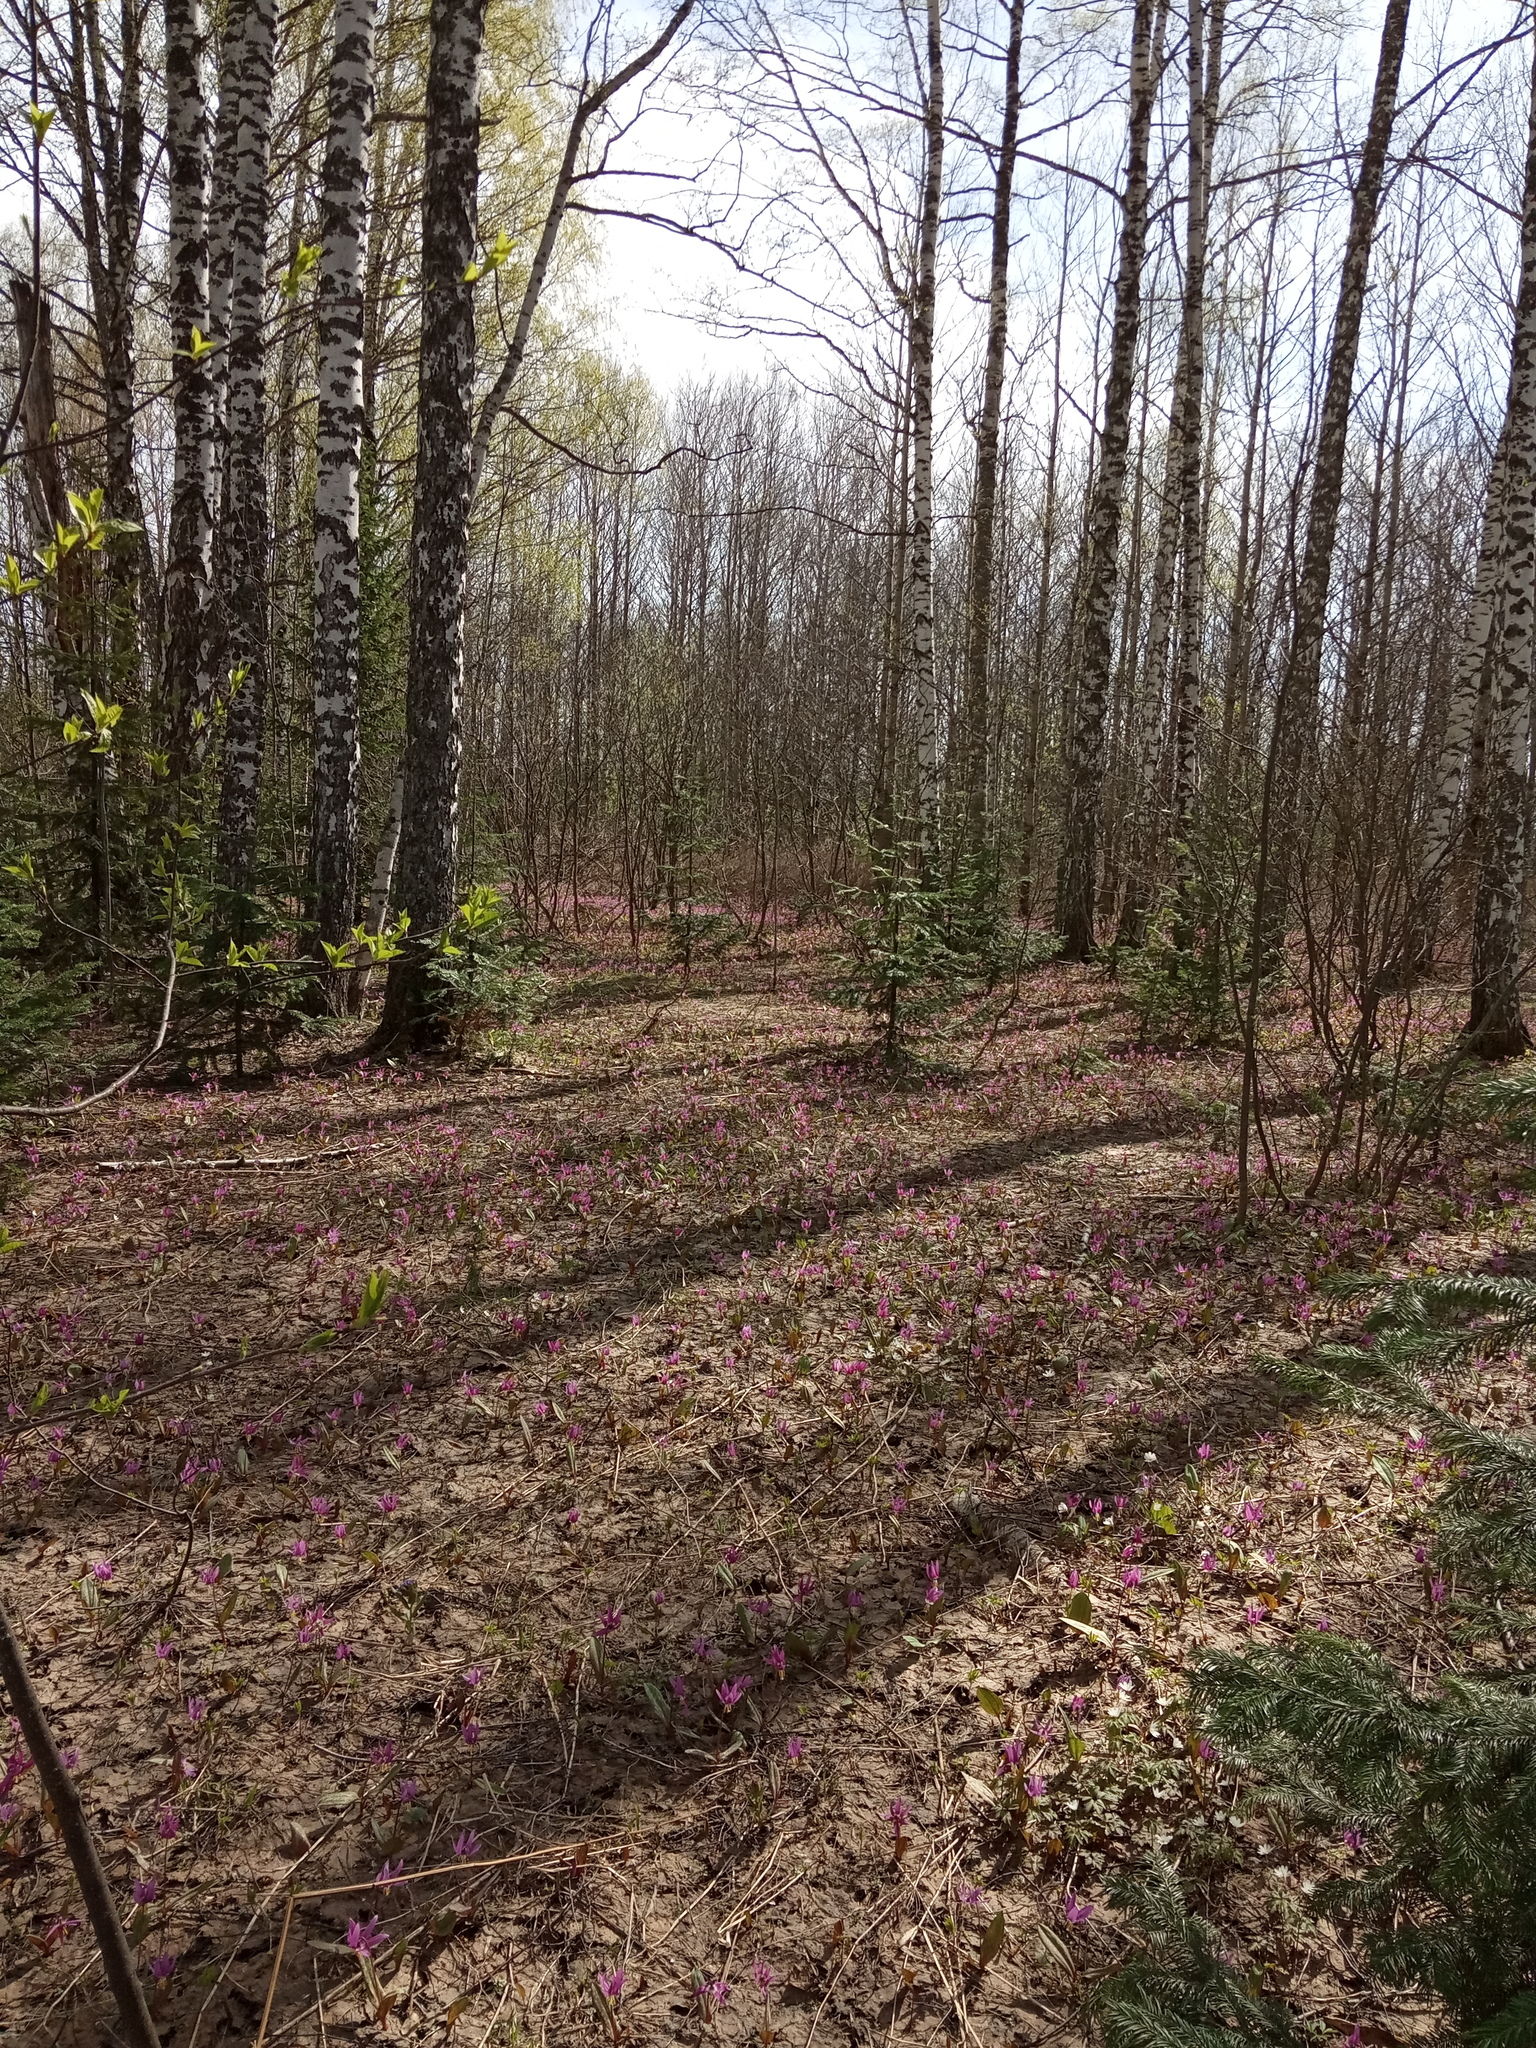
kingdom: Plantae
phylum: Tracheophyta
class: Pinopsida
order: Pinales
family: Pinaceae
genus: Abies
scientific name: Abies sibirica
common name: Siberian fir
